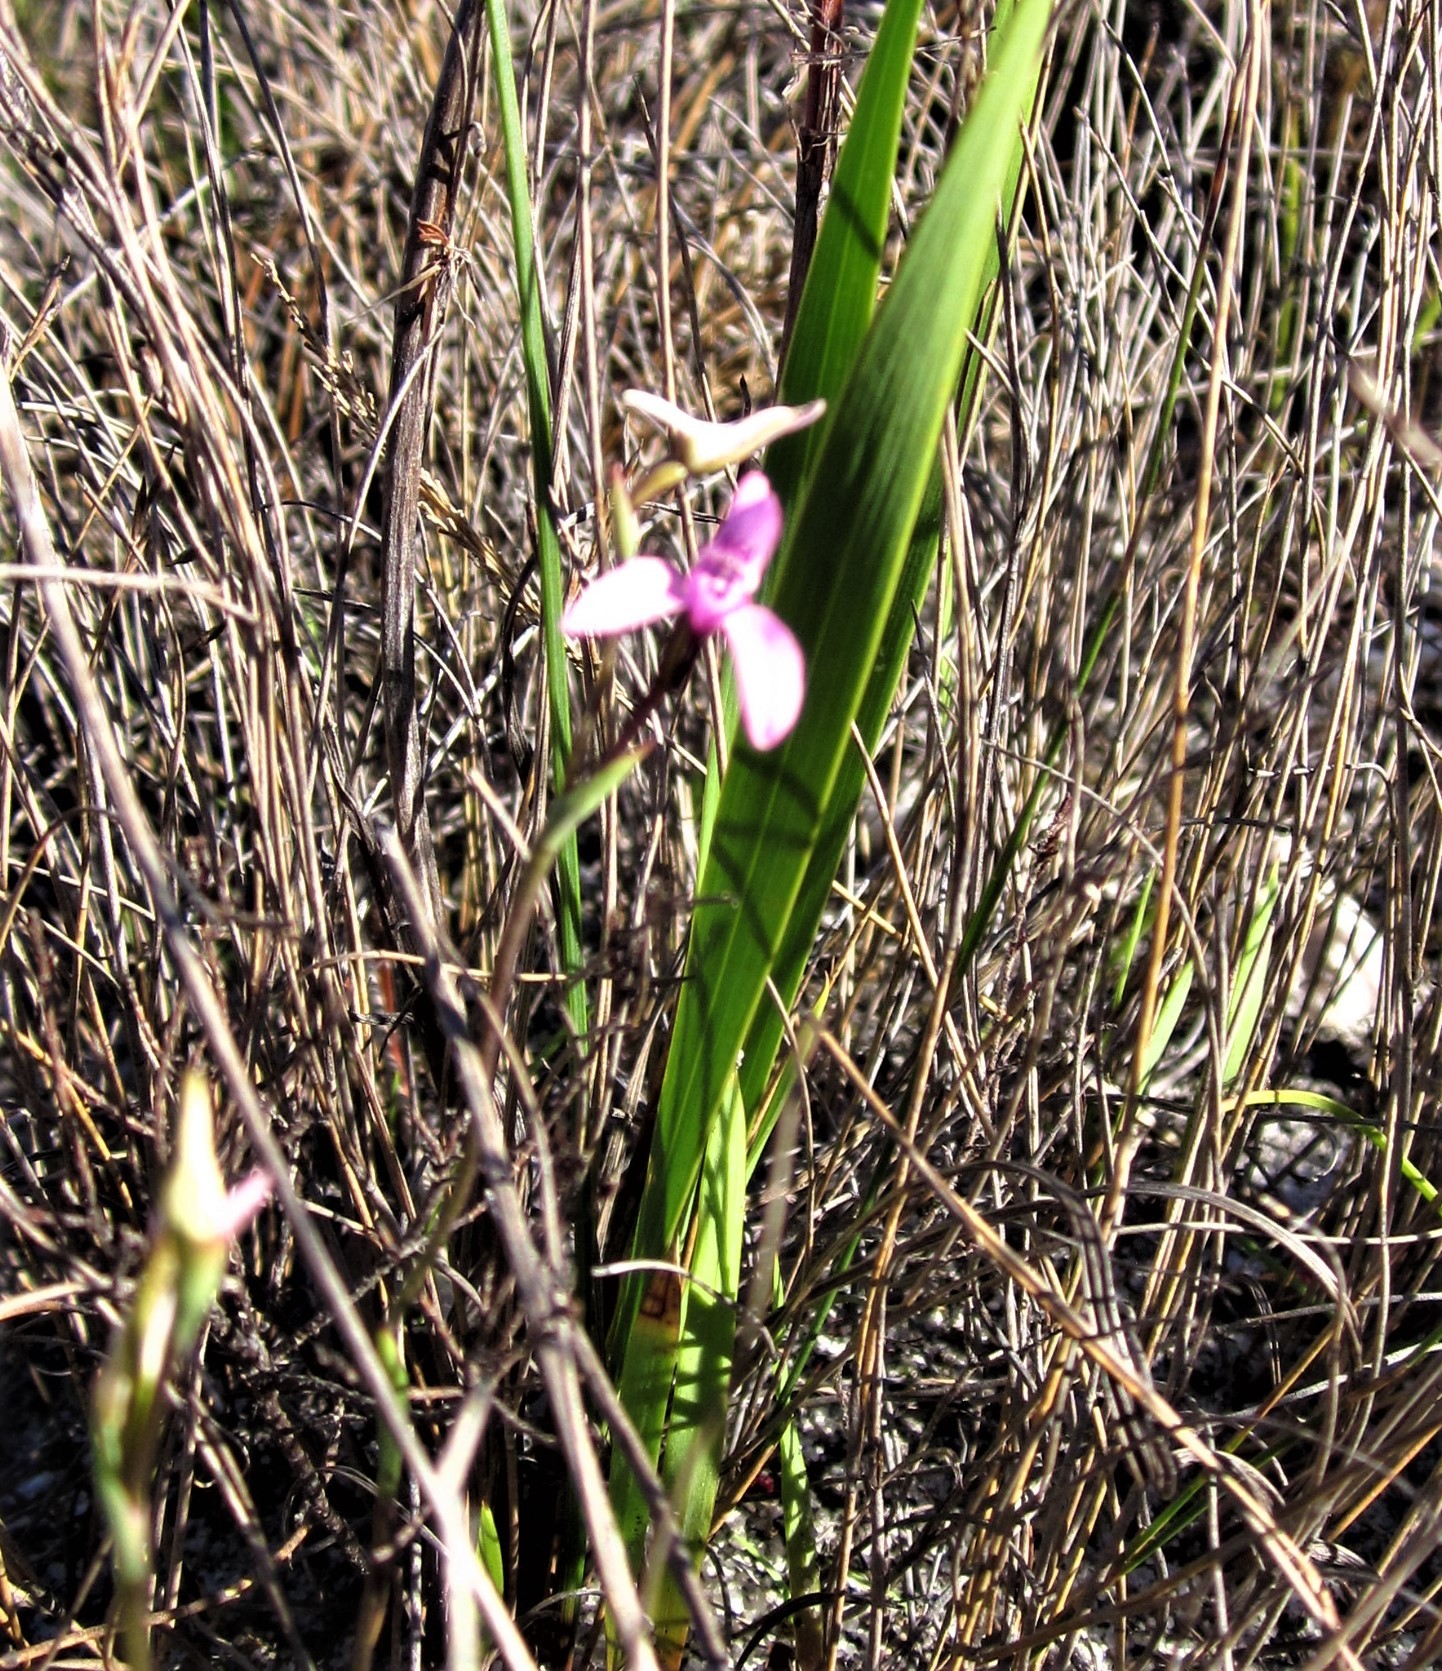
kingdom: Plantae
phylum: Tracheophyta
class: Liliopsida
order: Asparagales
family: Orchidaceae
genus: Disa
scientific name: Disa obliqua
